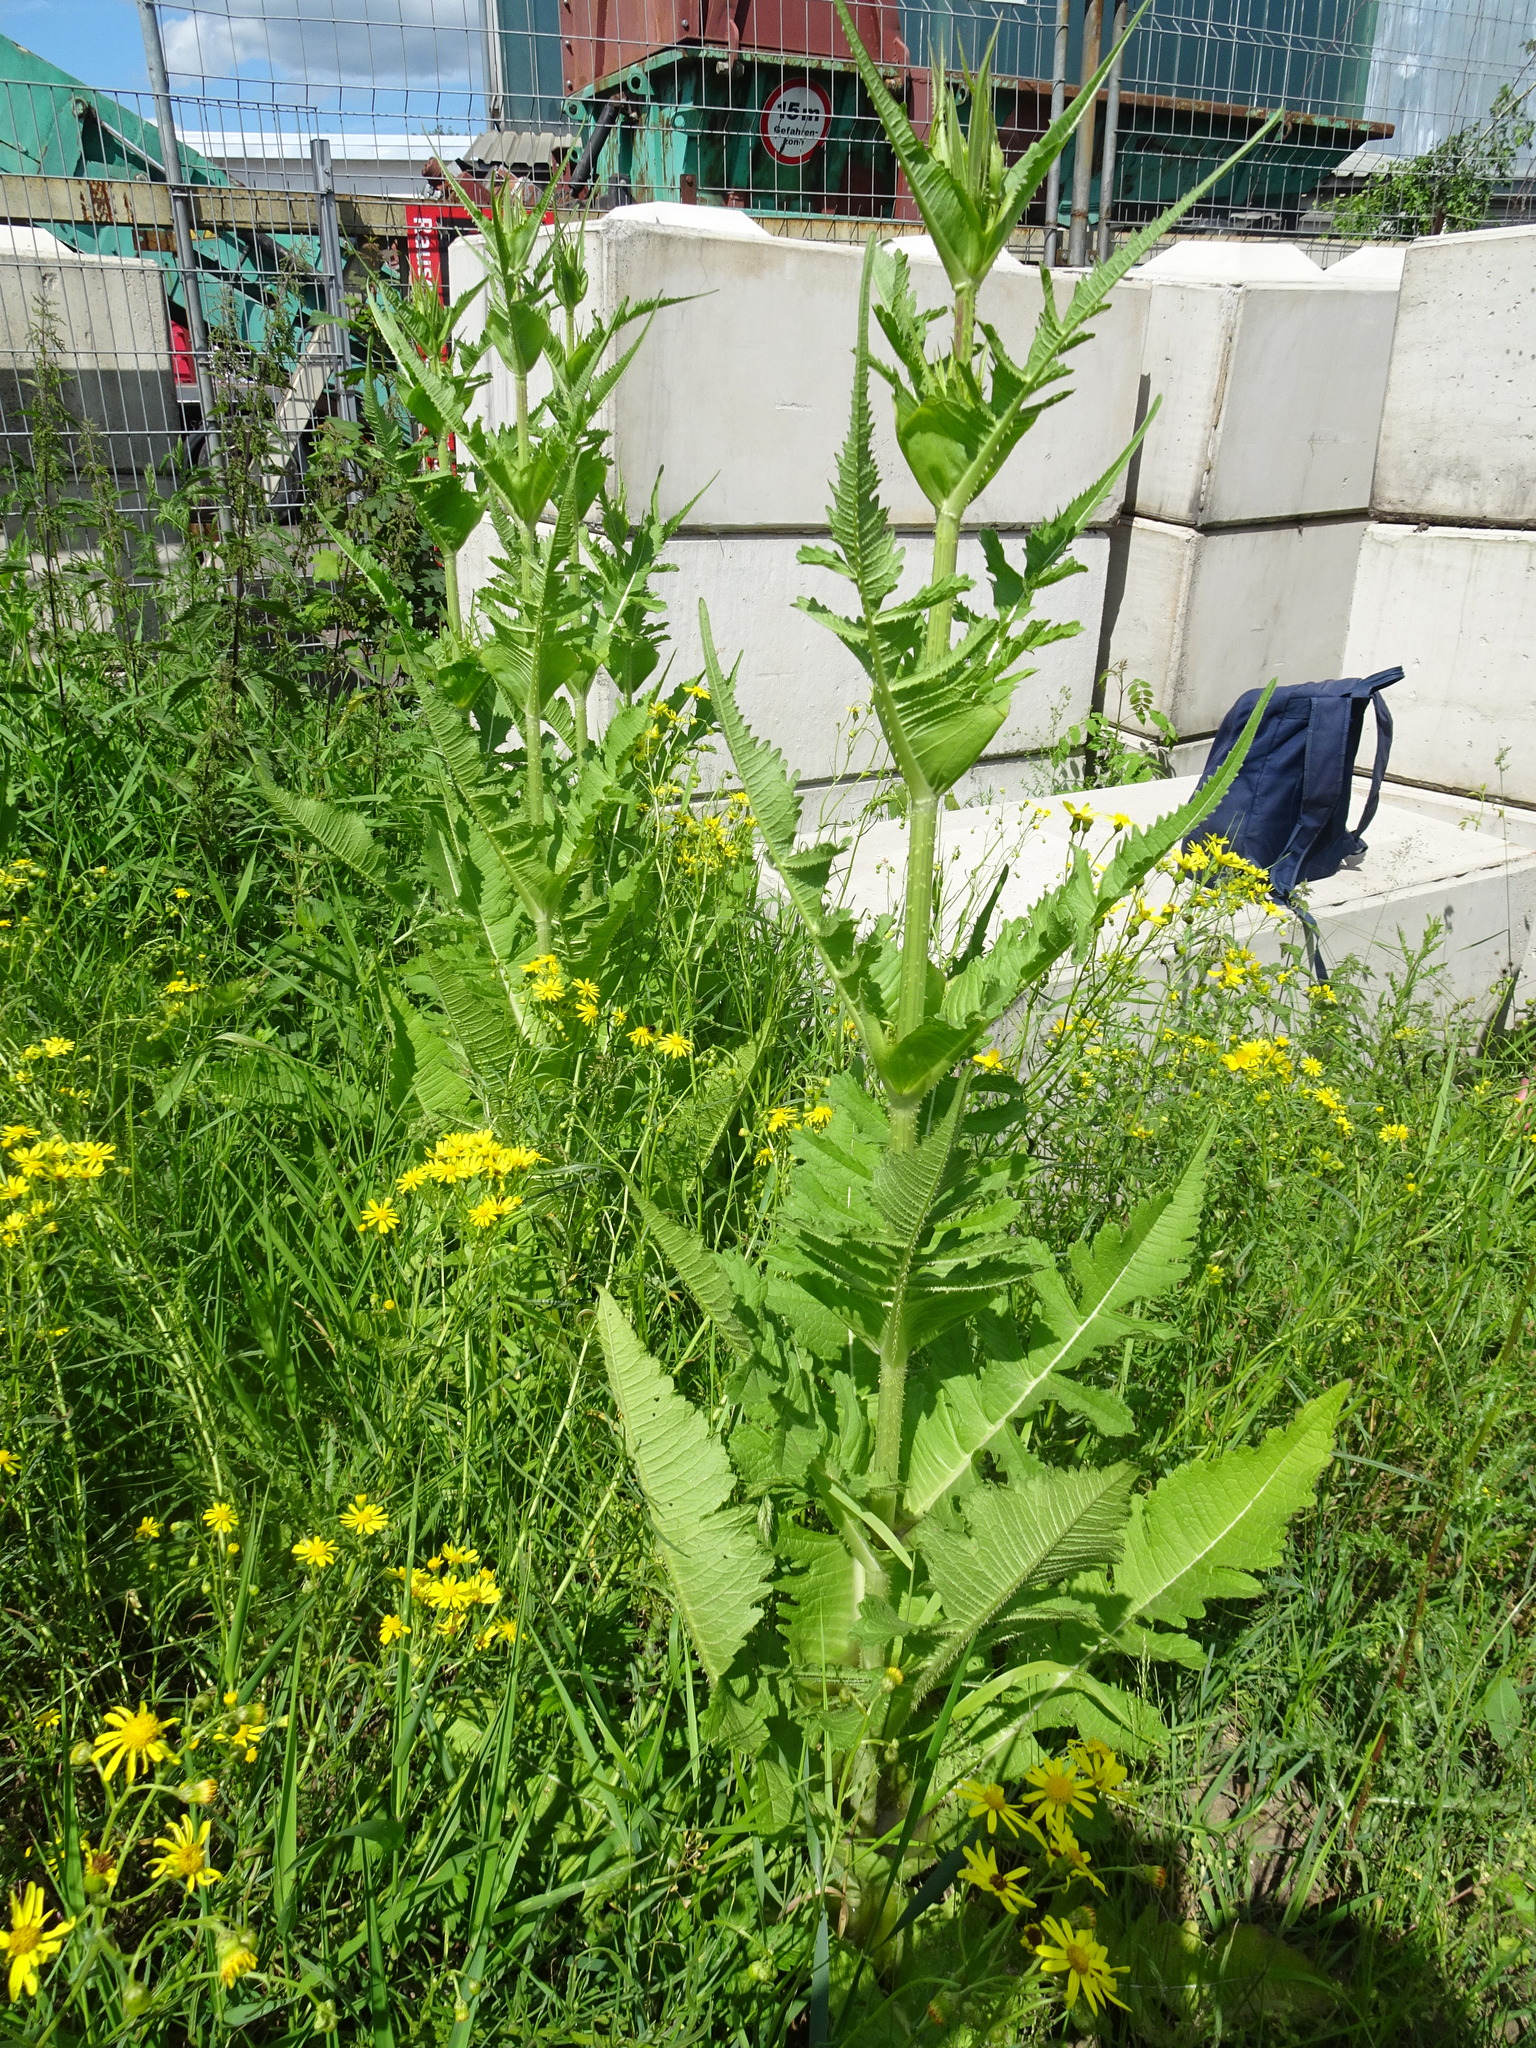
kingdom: Plantae
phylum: Tracheophyta
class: Magnoliopsida
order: Dipsacales
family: Caprifoliaceae
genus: Dipsacus
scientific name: Dipsacus laciniatus
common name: Cut-leaved teasel
